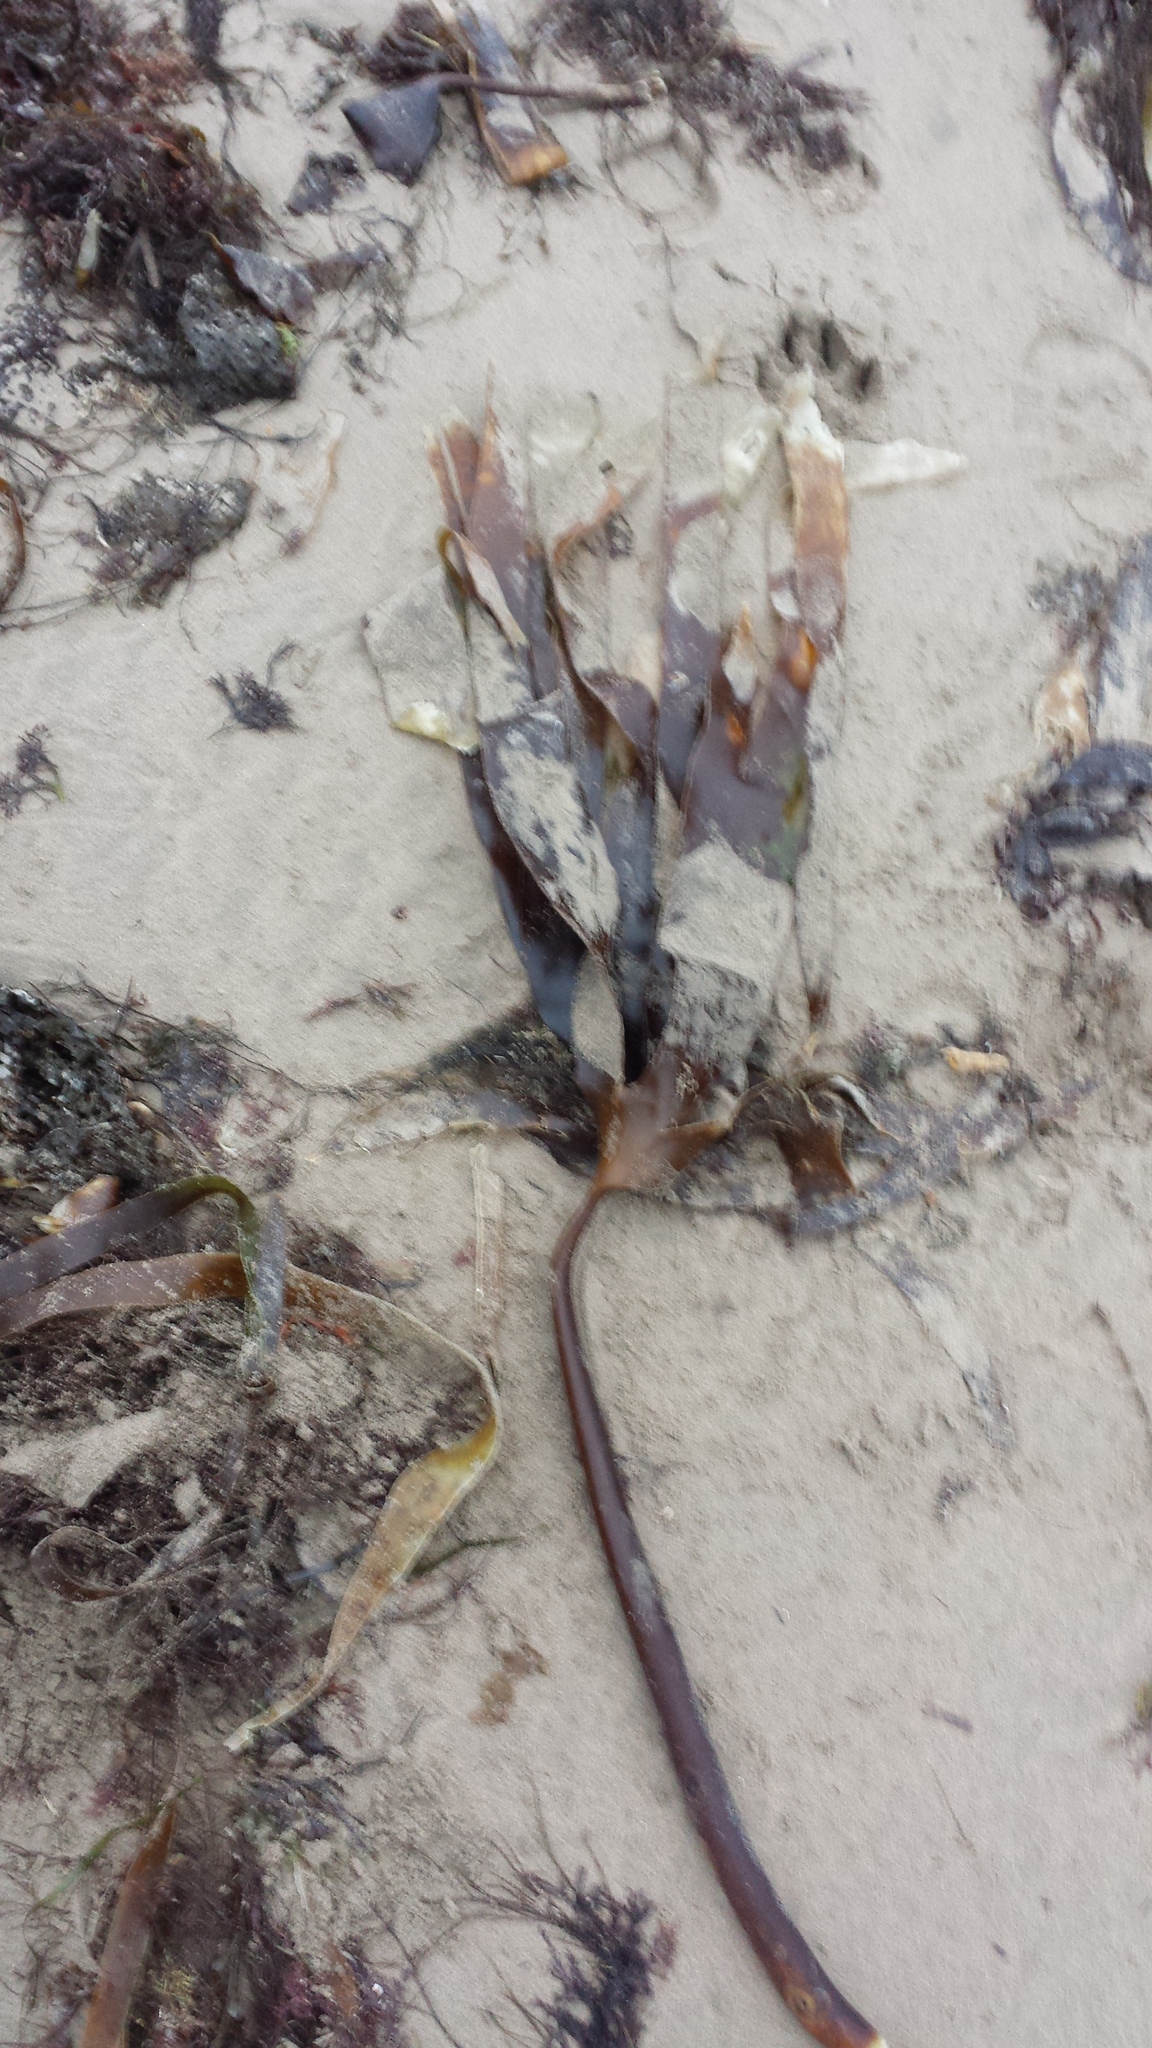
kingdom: Chromista
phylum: Ochrophyta
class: Phaeophyceae
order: Laminariales
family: Laminariaceae
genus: Laminaria
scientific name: Laminaria digitata
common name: Oarweed
